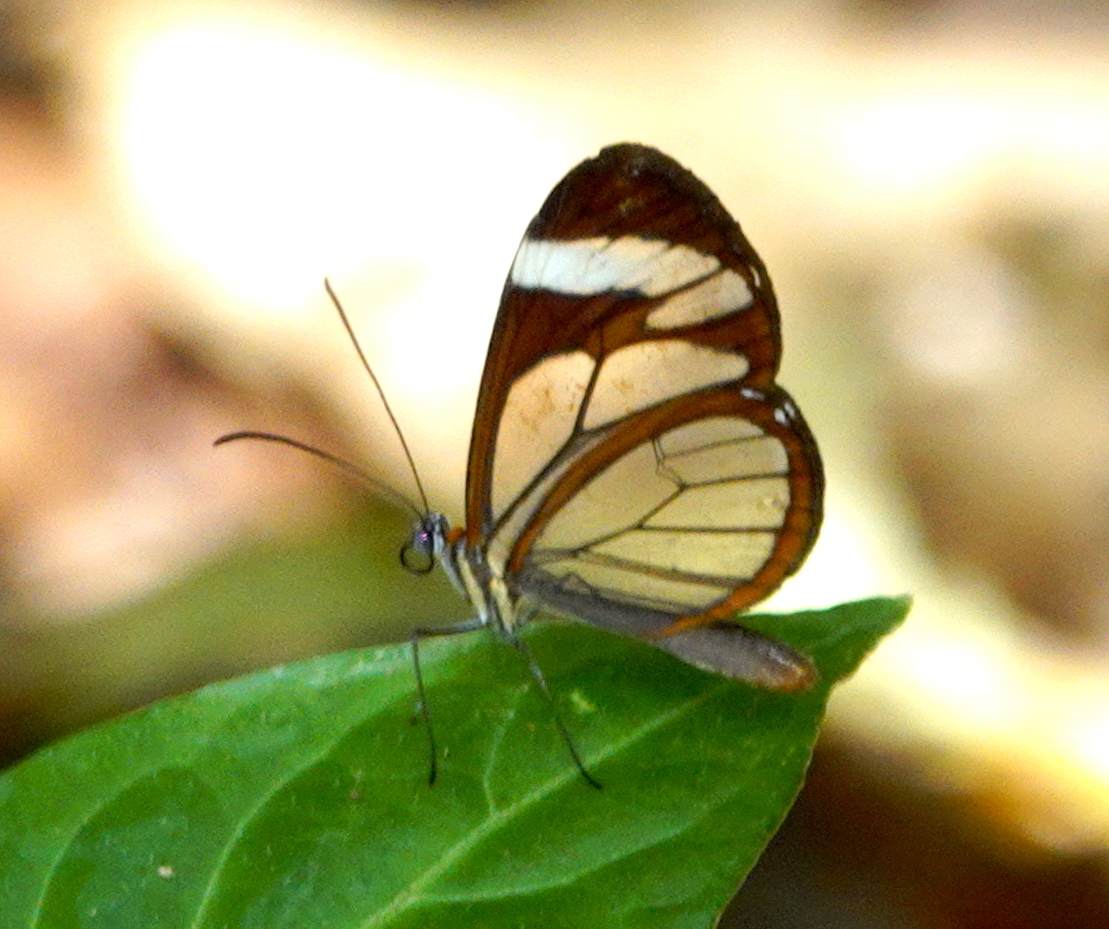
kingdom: Animalia
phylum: Arthropoda
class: Insecta
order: Lepidoptera
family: Nymphalidae
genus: Ithomia
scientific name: Ithomia patilla
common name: Patilla clearwing
